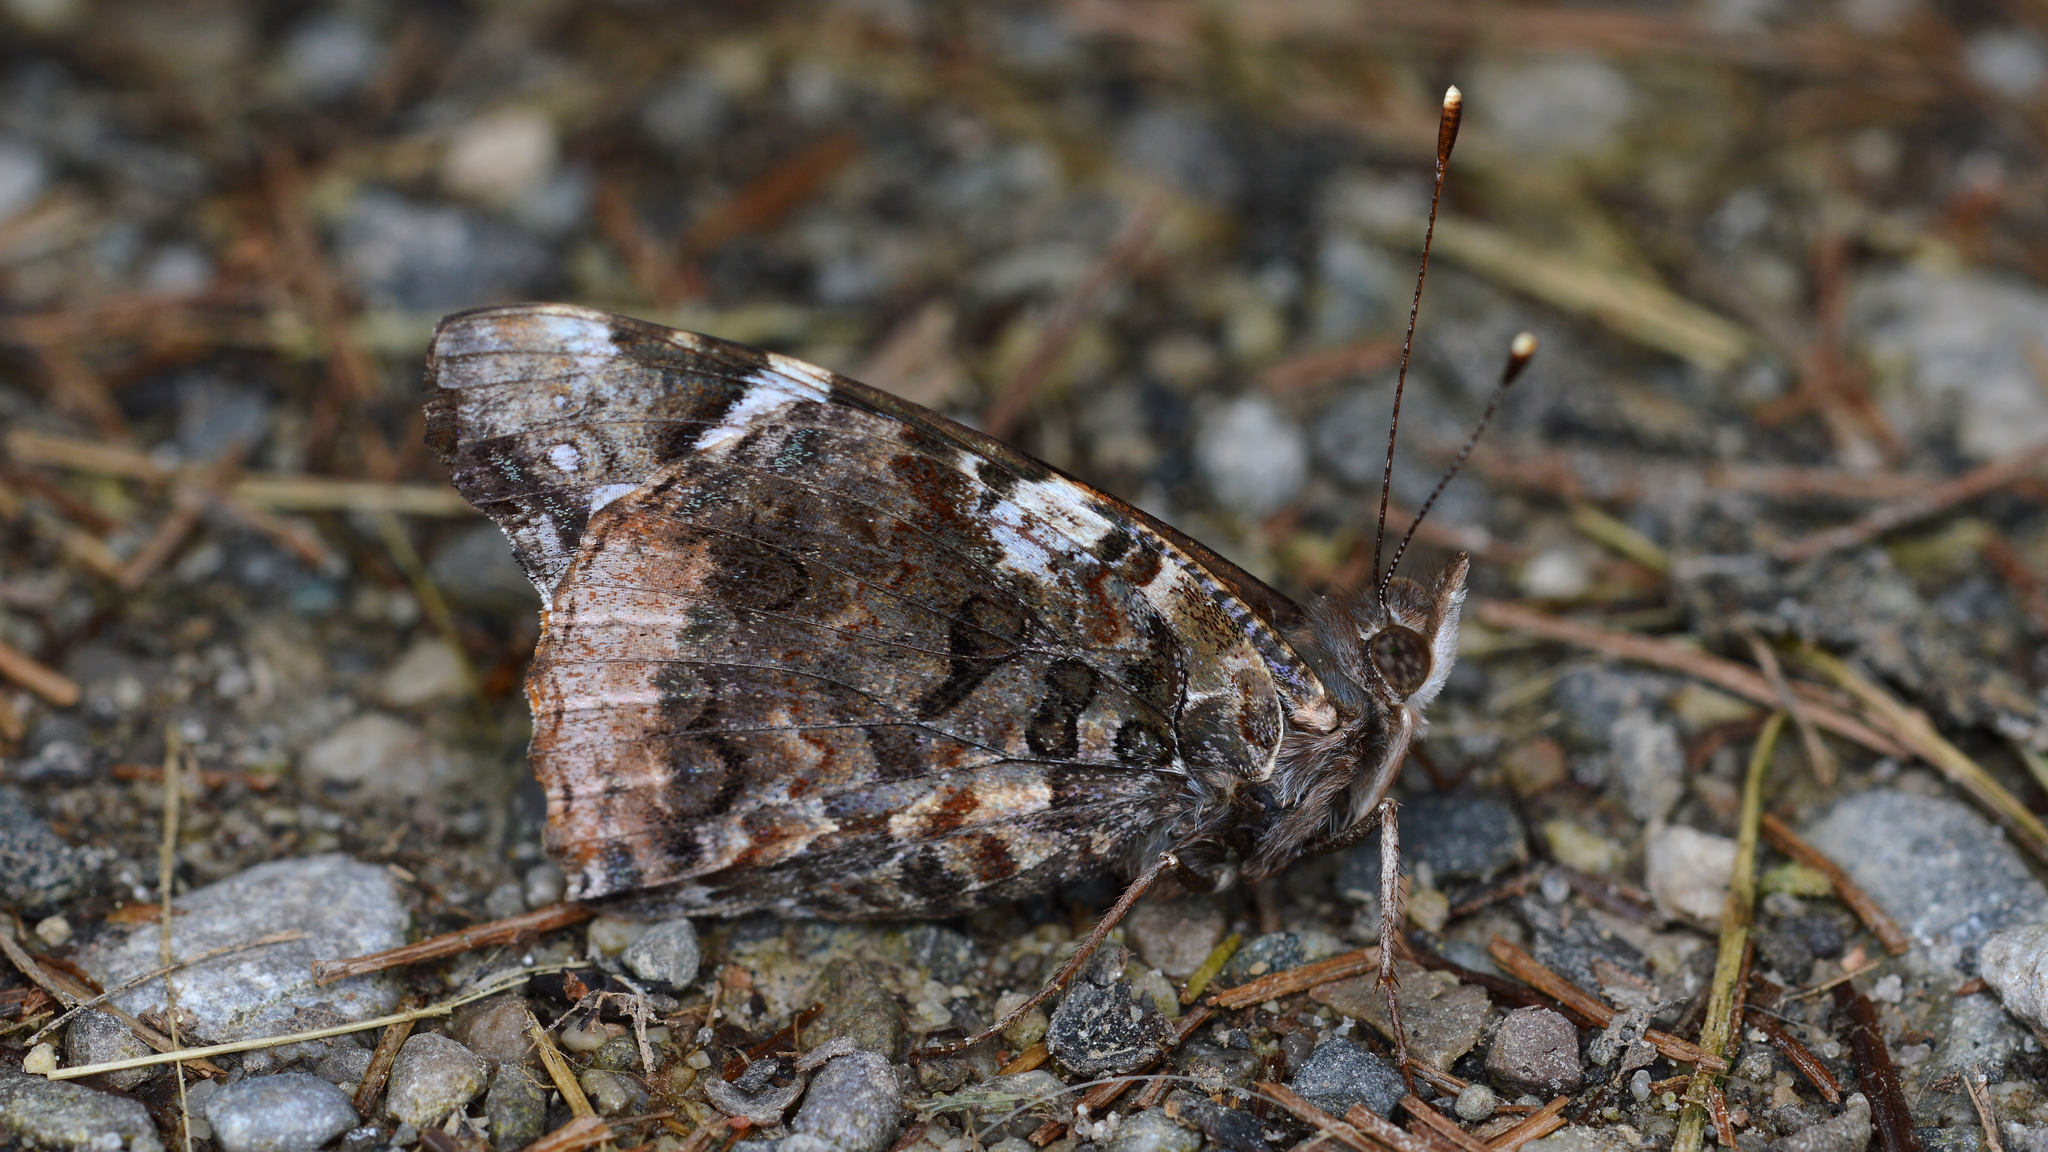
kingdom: Animalia
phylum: Arthropoda
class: Insecta
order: Lepidoptera
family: Nymphalidae
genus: Vanessa
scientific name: Vanessa atalanta
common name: Red admiral
